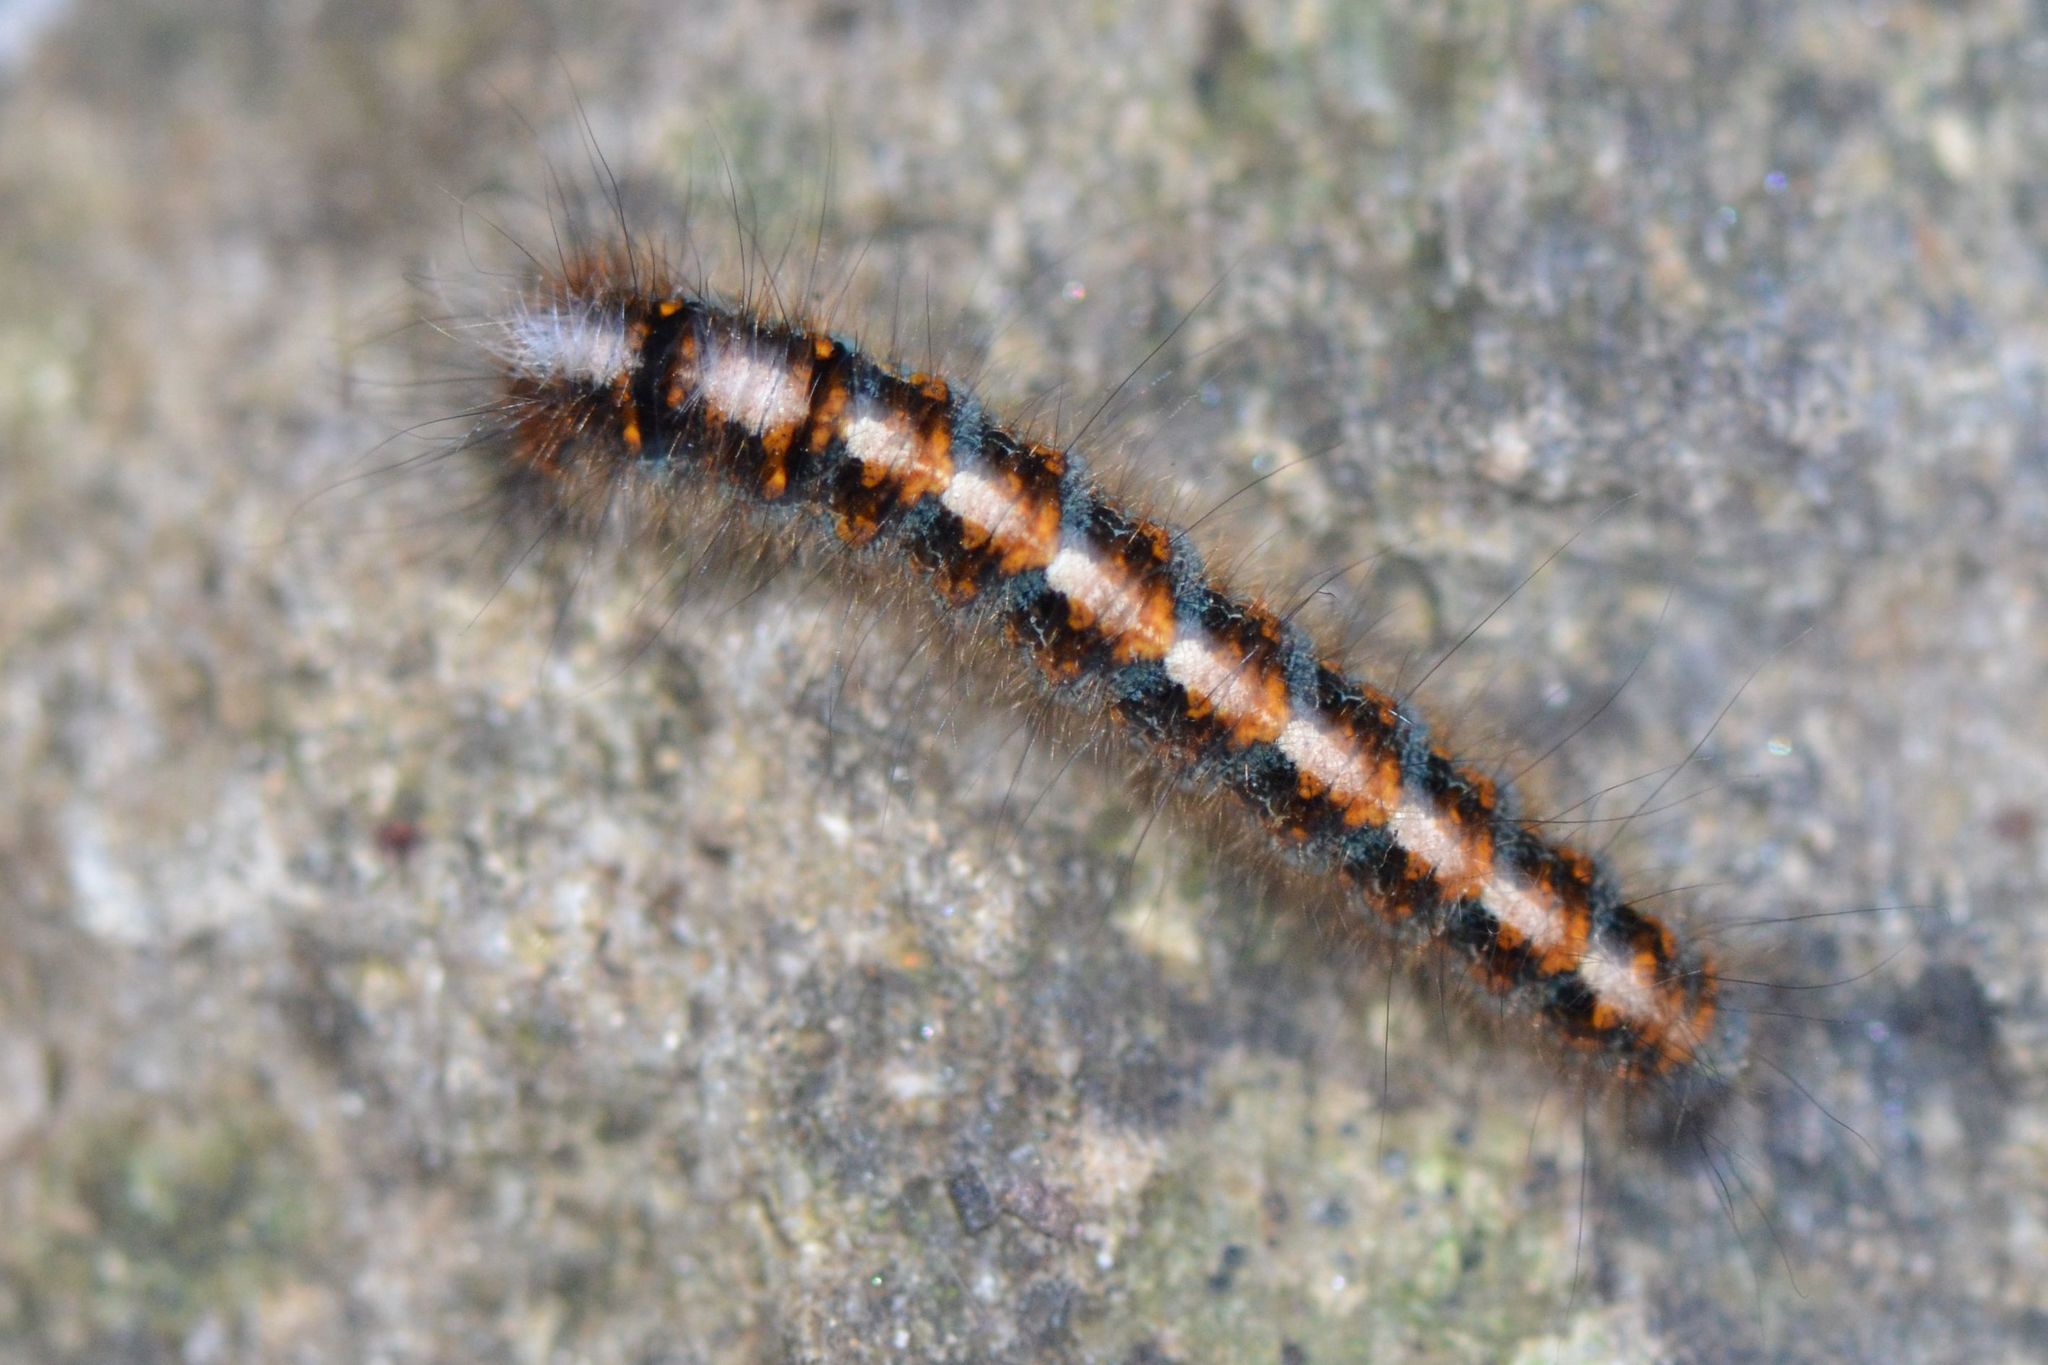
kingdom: Animalia
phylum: Arthropoda
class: Insecta
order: Lepidoptera
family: Lasiocampidae
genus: Lasiocampa
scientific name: Lasiocampa quercus
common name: Oak eggar
